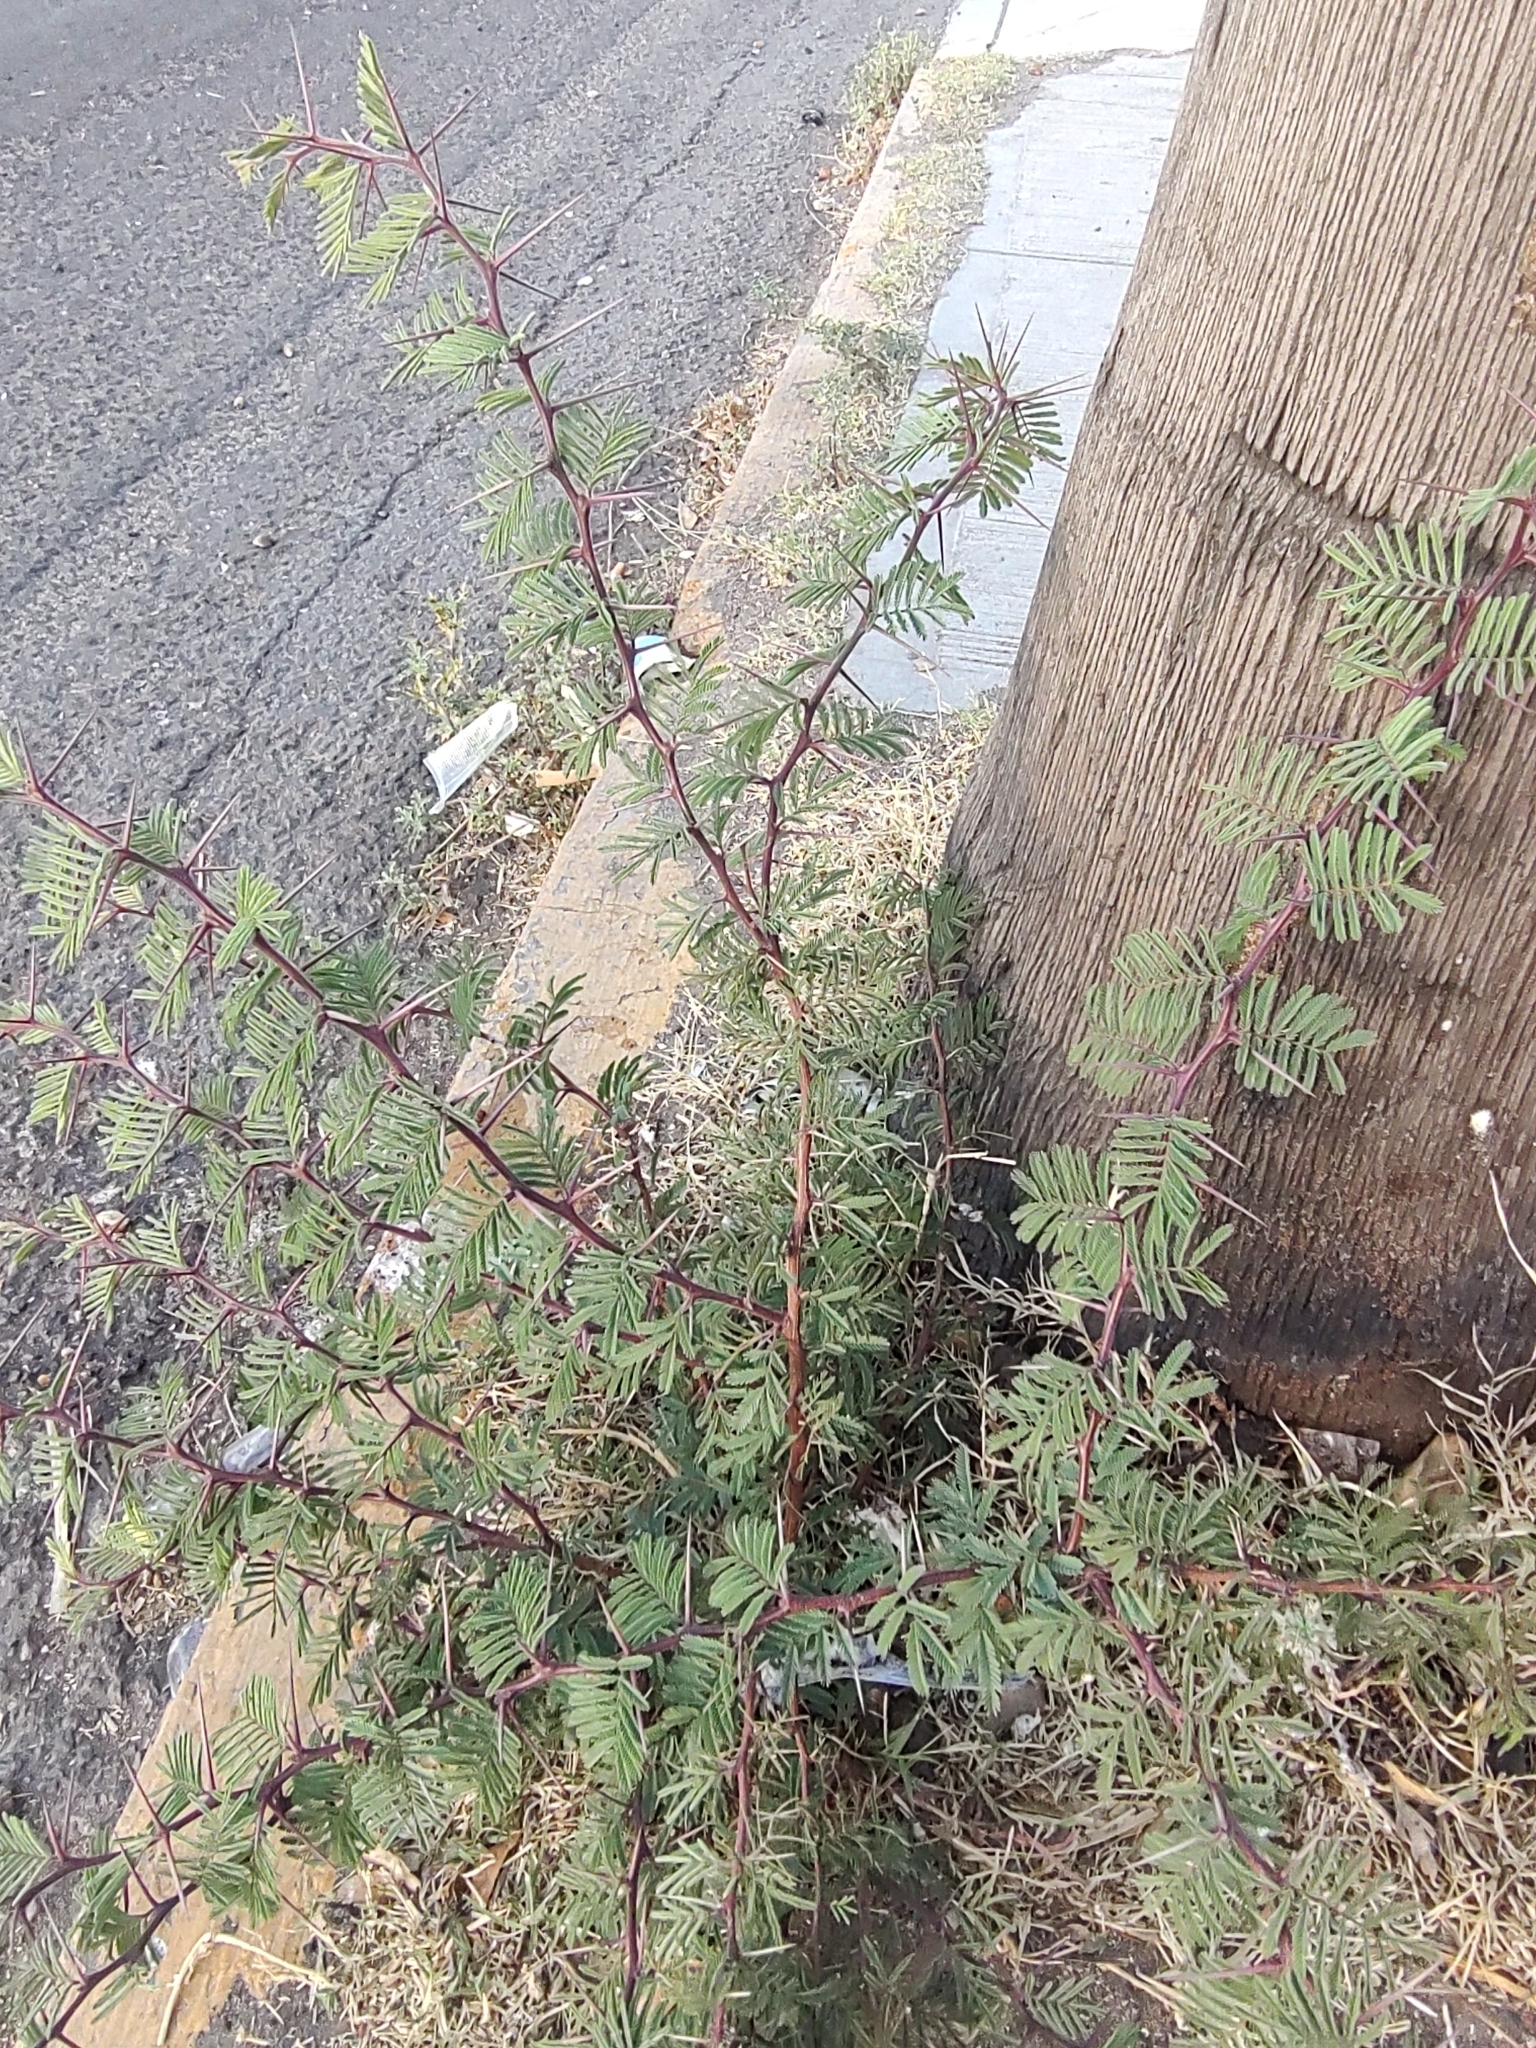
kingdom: Plantae
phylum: Tracheophyta
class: Magnoliopsida
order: Fabales
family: Fabaceae
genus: Vachellia
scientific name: Vachellia schaffneri
